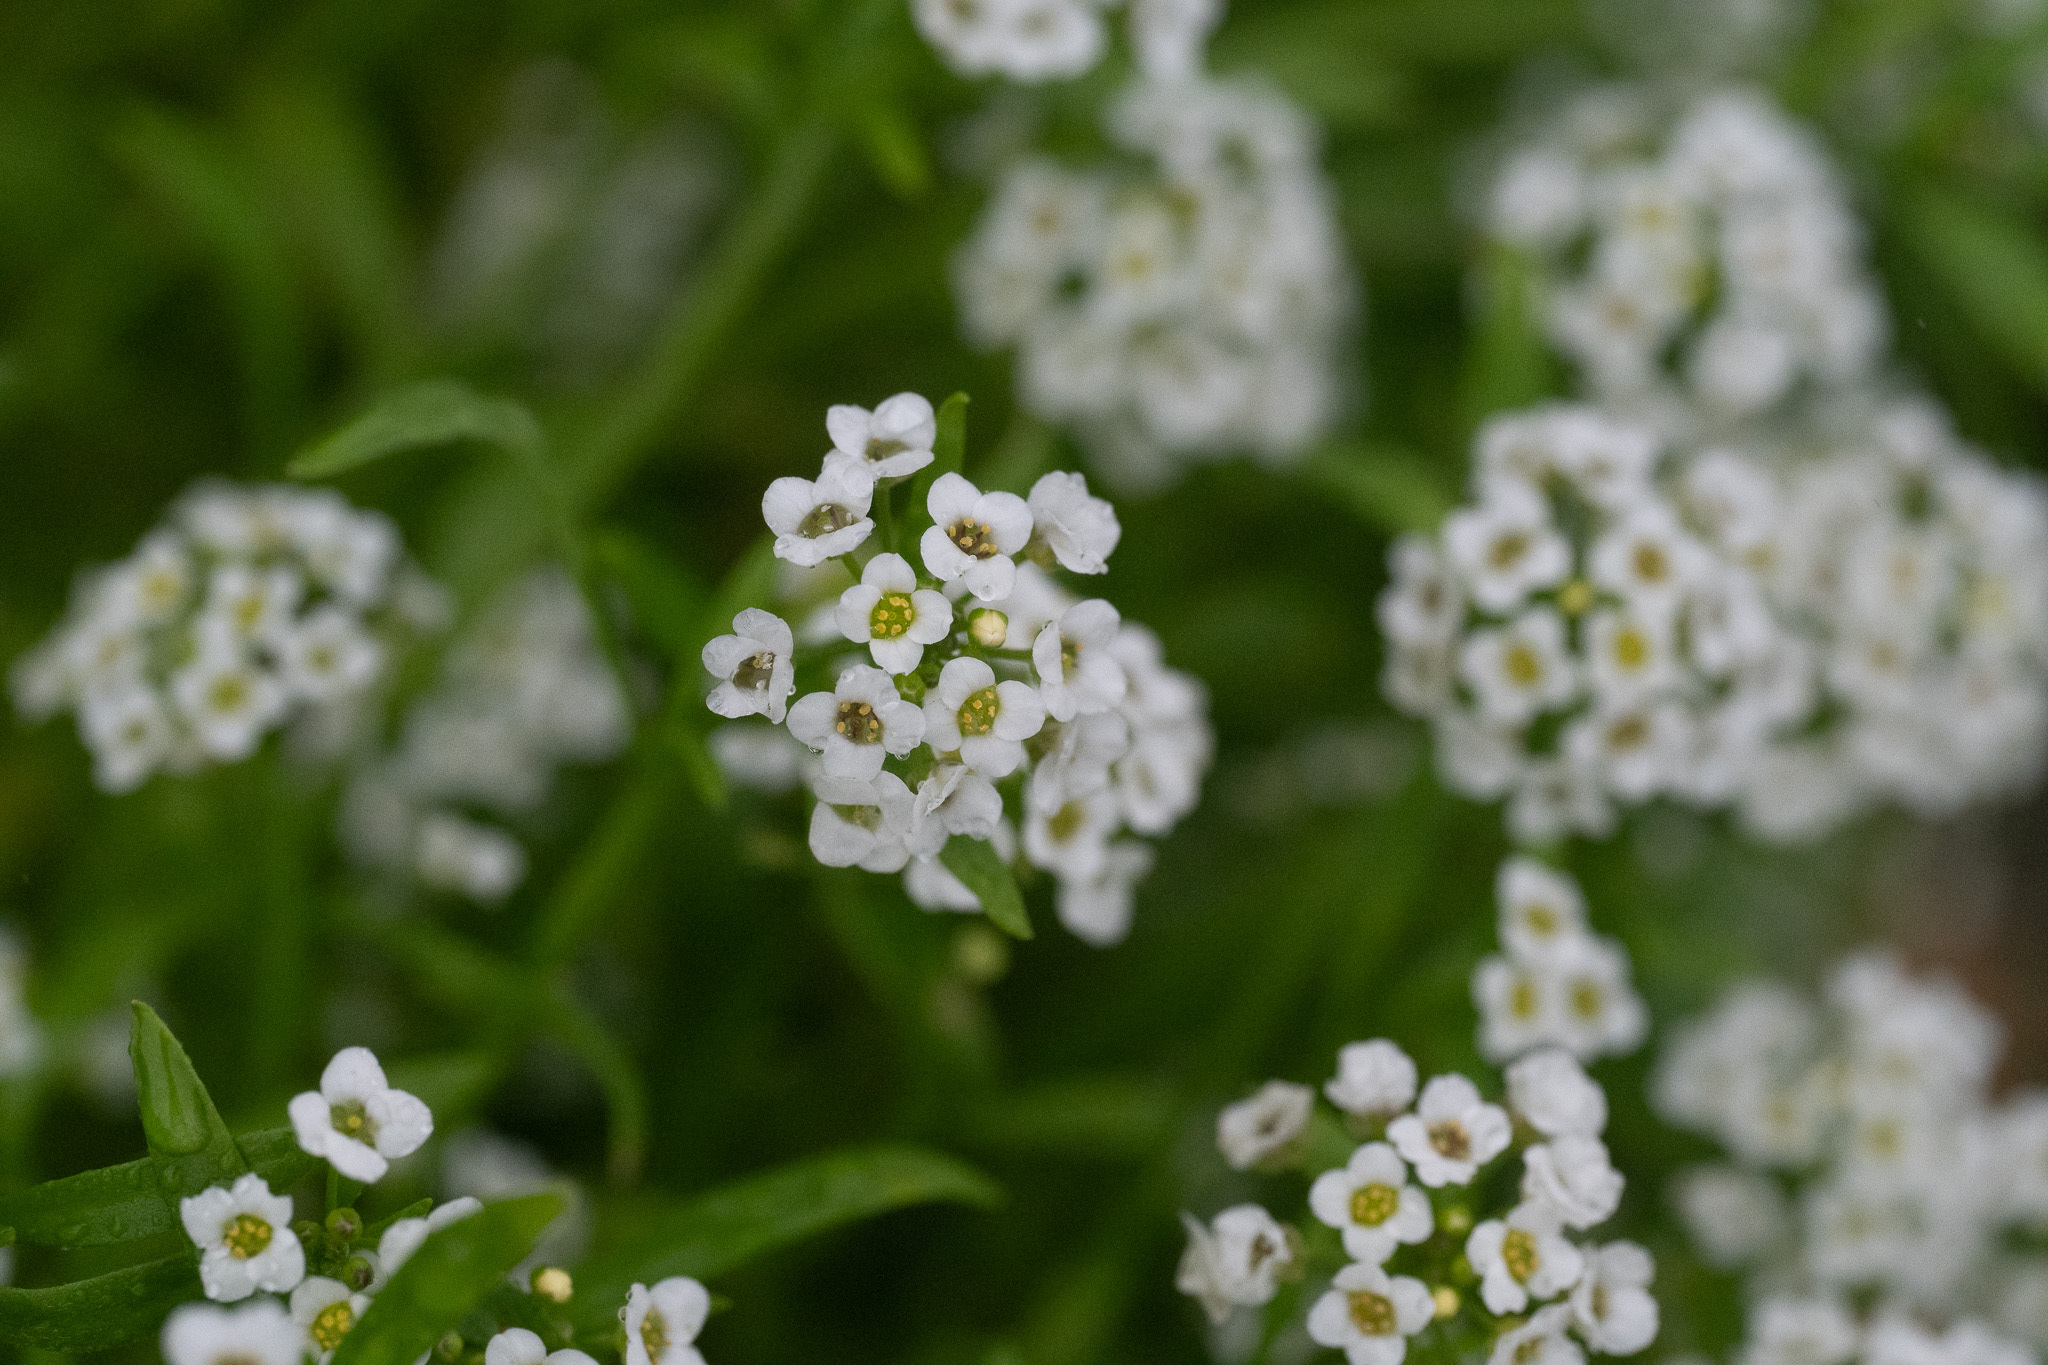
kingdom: Plantae
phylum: Tracheophyta
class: Magnoliopsida
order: Brassicales
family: Brassicaceae
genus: Lobularia
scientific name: Lobularia maritima
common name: Sweet alison
